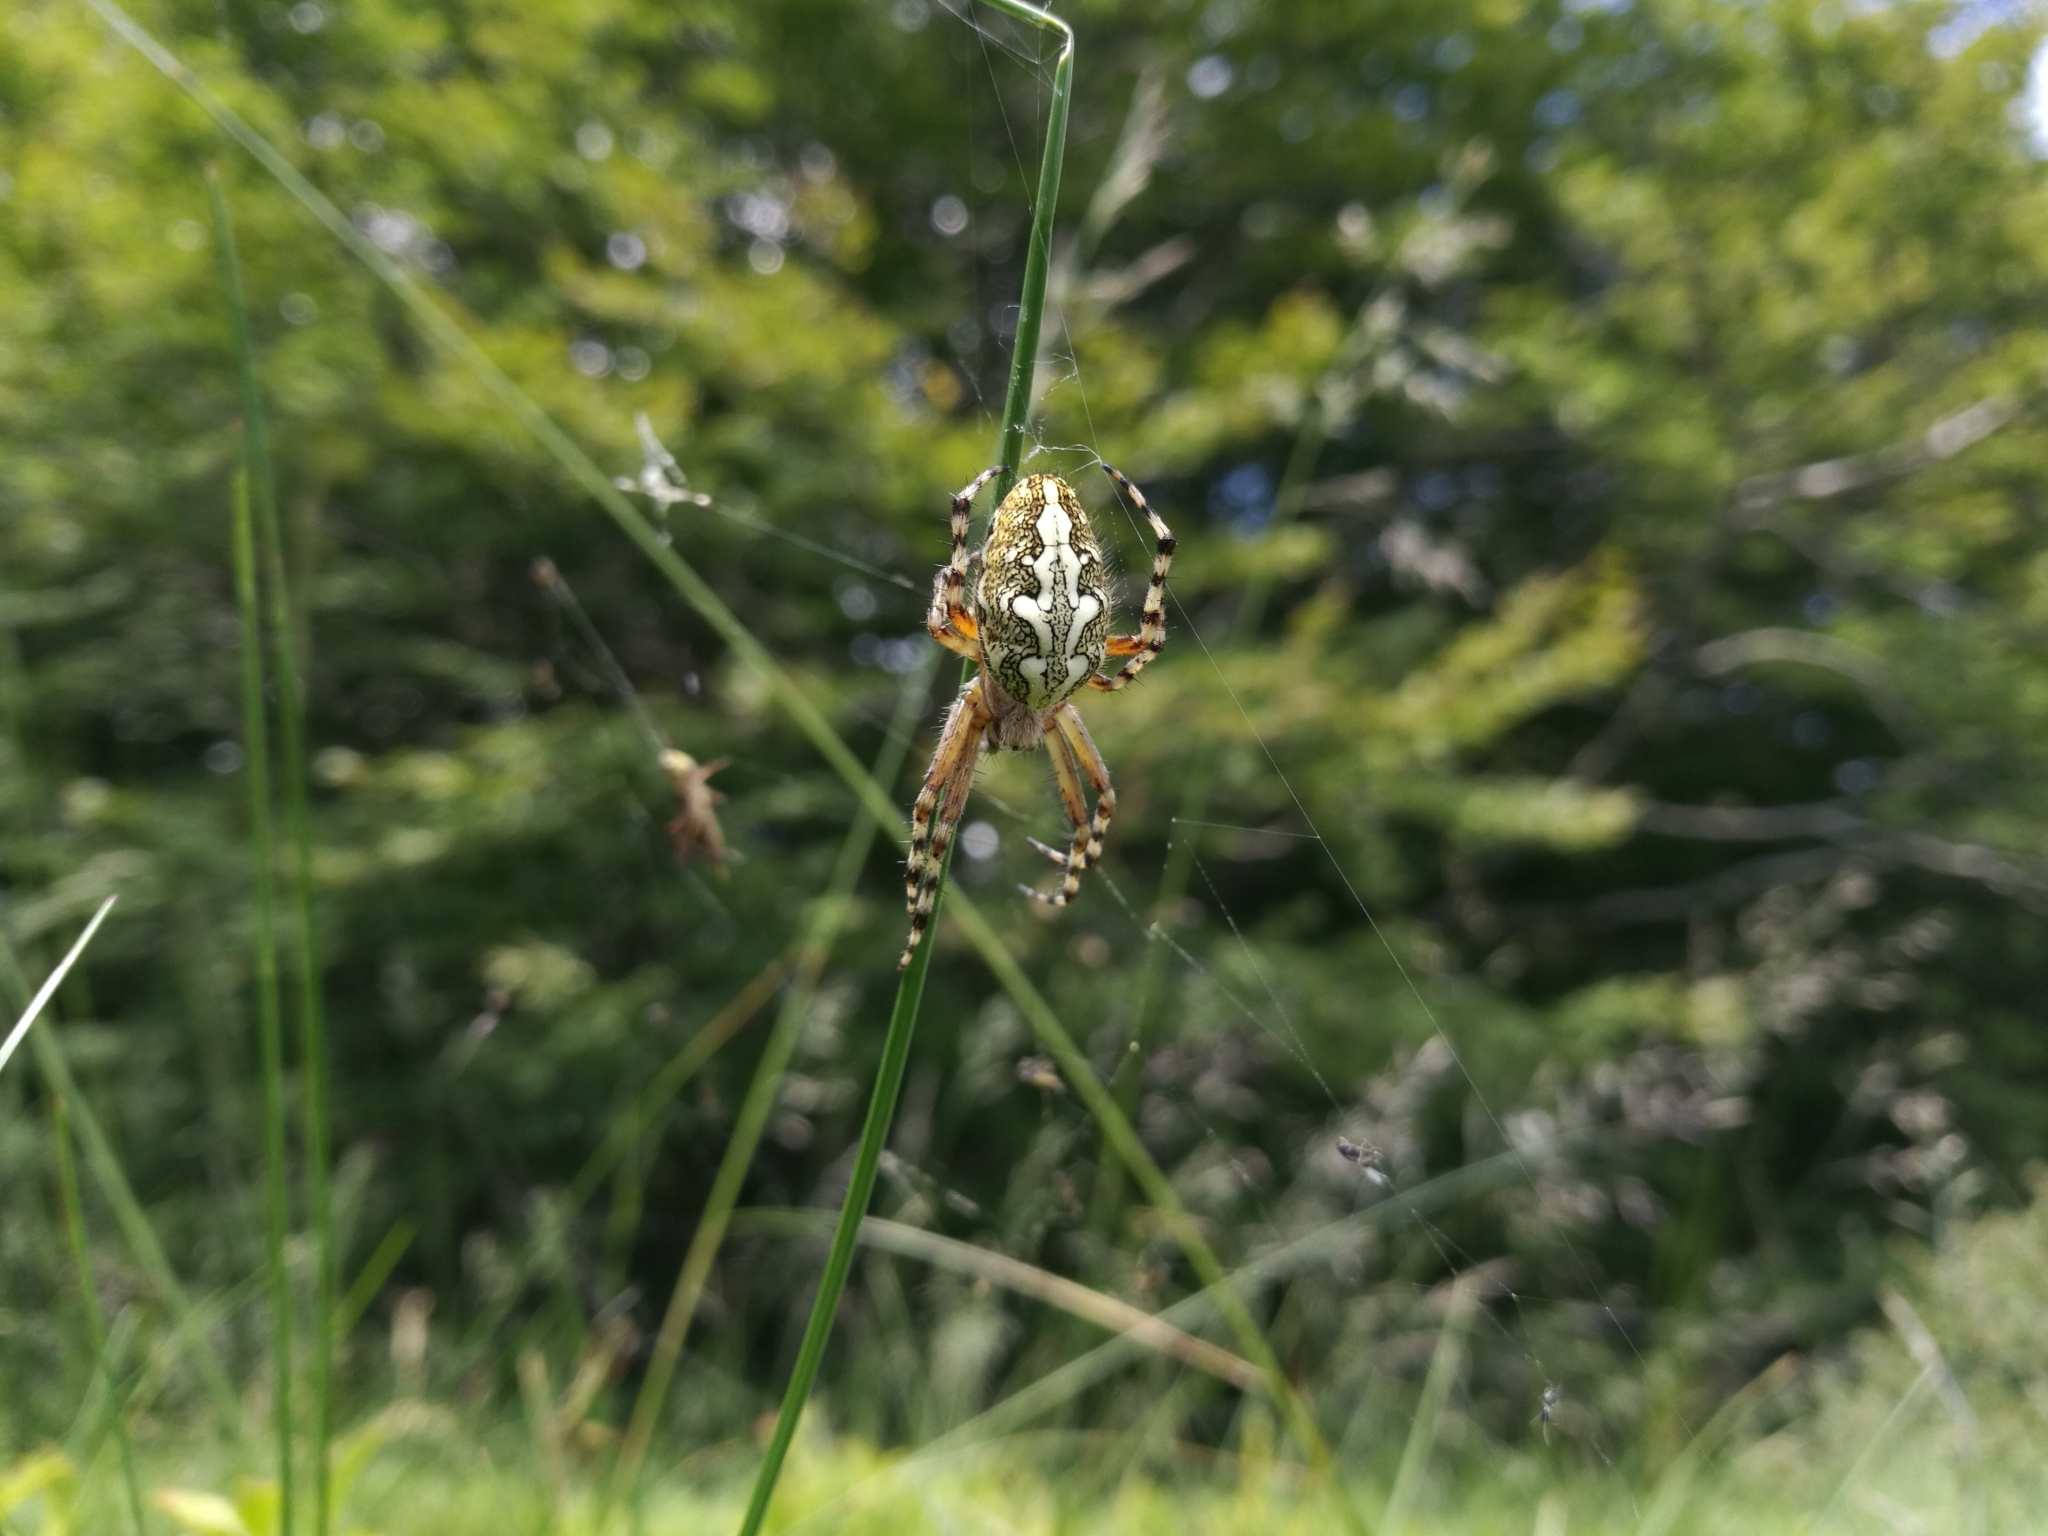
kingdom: Animalia
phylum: Arthropoda
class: Arachnida
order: Araneae
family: Araneidae
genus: Aculepeira
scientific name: Aculepeira ceropegia
